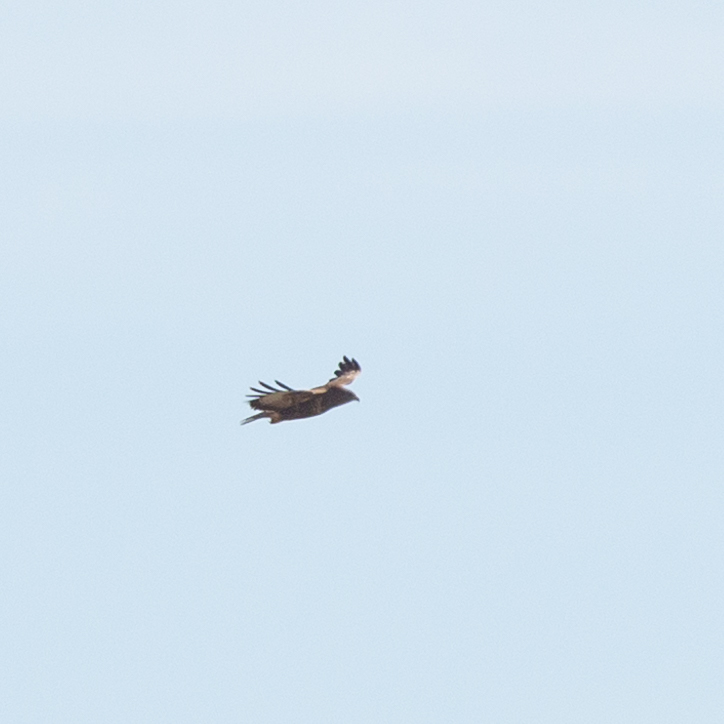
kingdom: Animalia
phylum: Chordata
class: Aves
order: Accipitriformes
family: Accipitridae
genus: Buteo
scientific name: Buteo buteo
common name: Common buzzard
